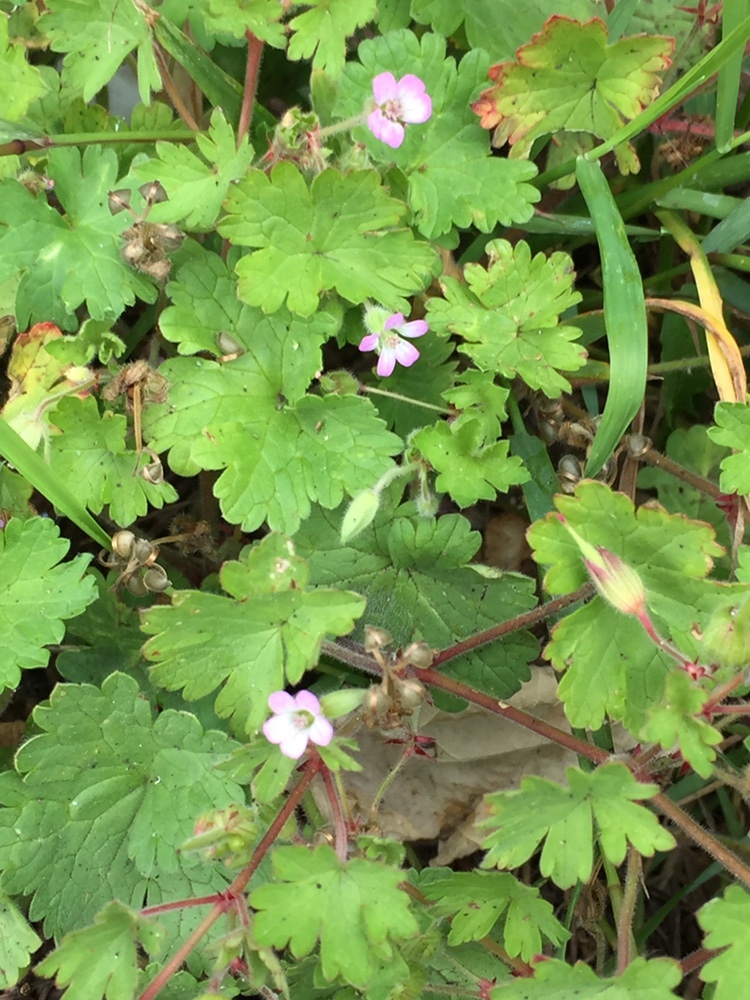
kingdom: Plantae
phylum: Tracheophyta
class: Magnoliopsida
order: Geraniales
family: Geraniaceae
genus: Geranium
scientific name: Geranium rotundifolium
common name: Round-leaved crane's-bill
